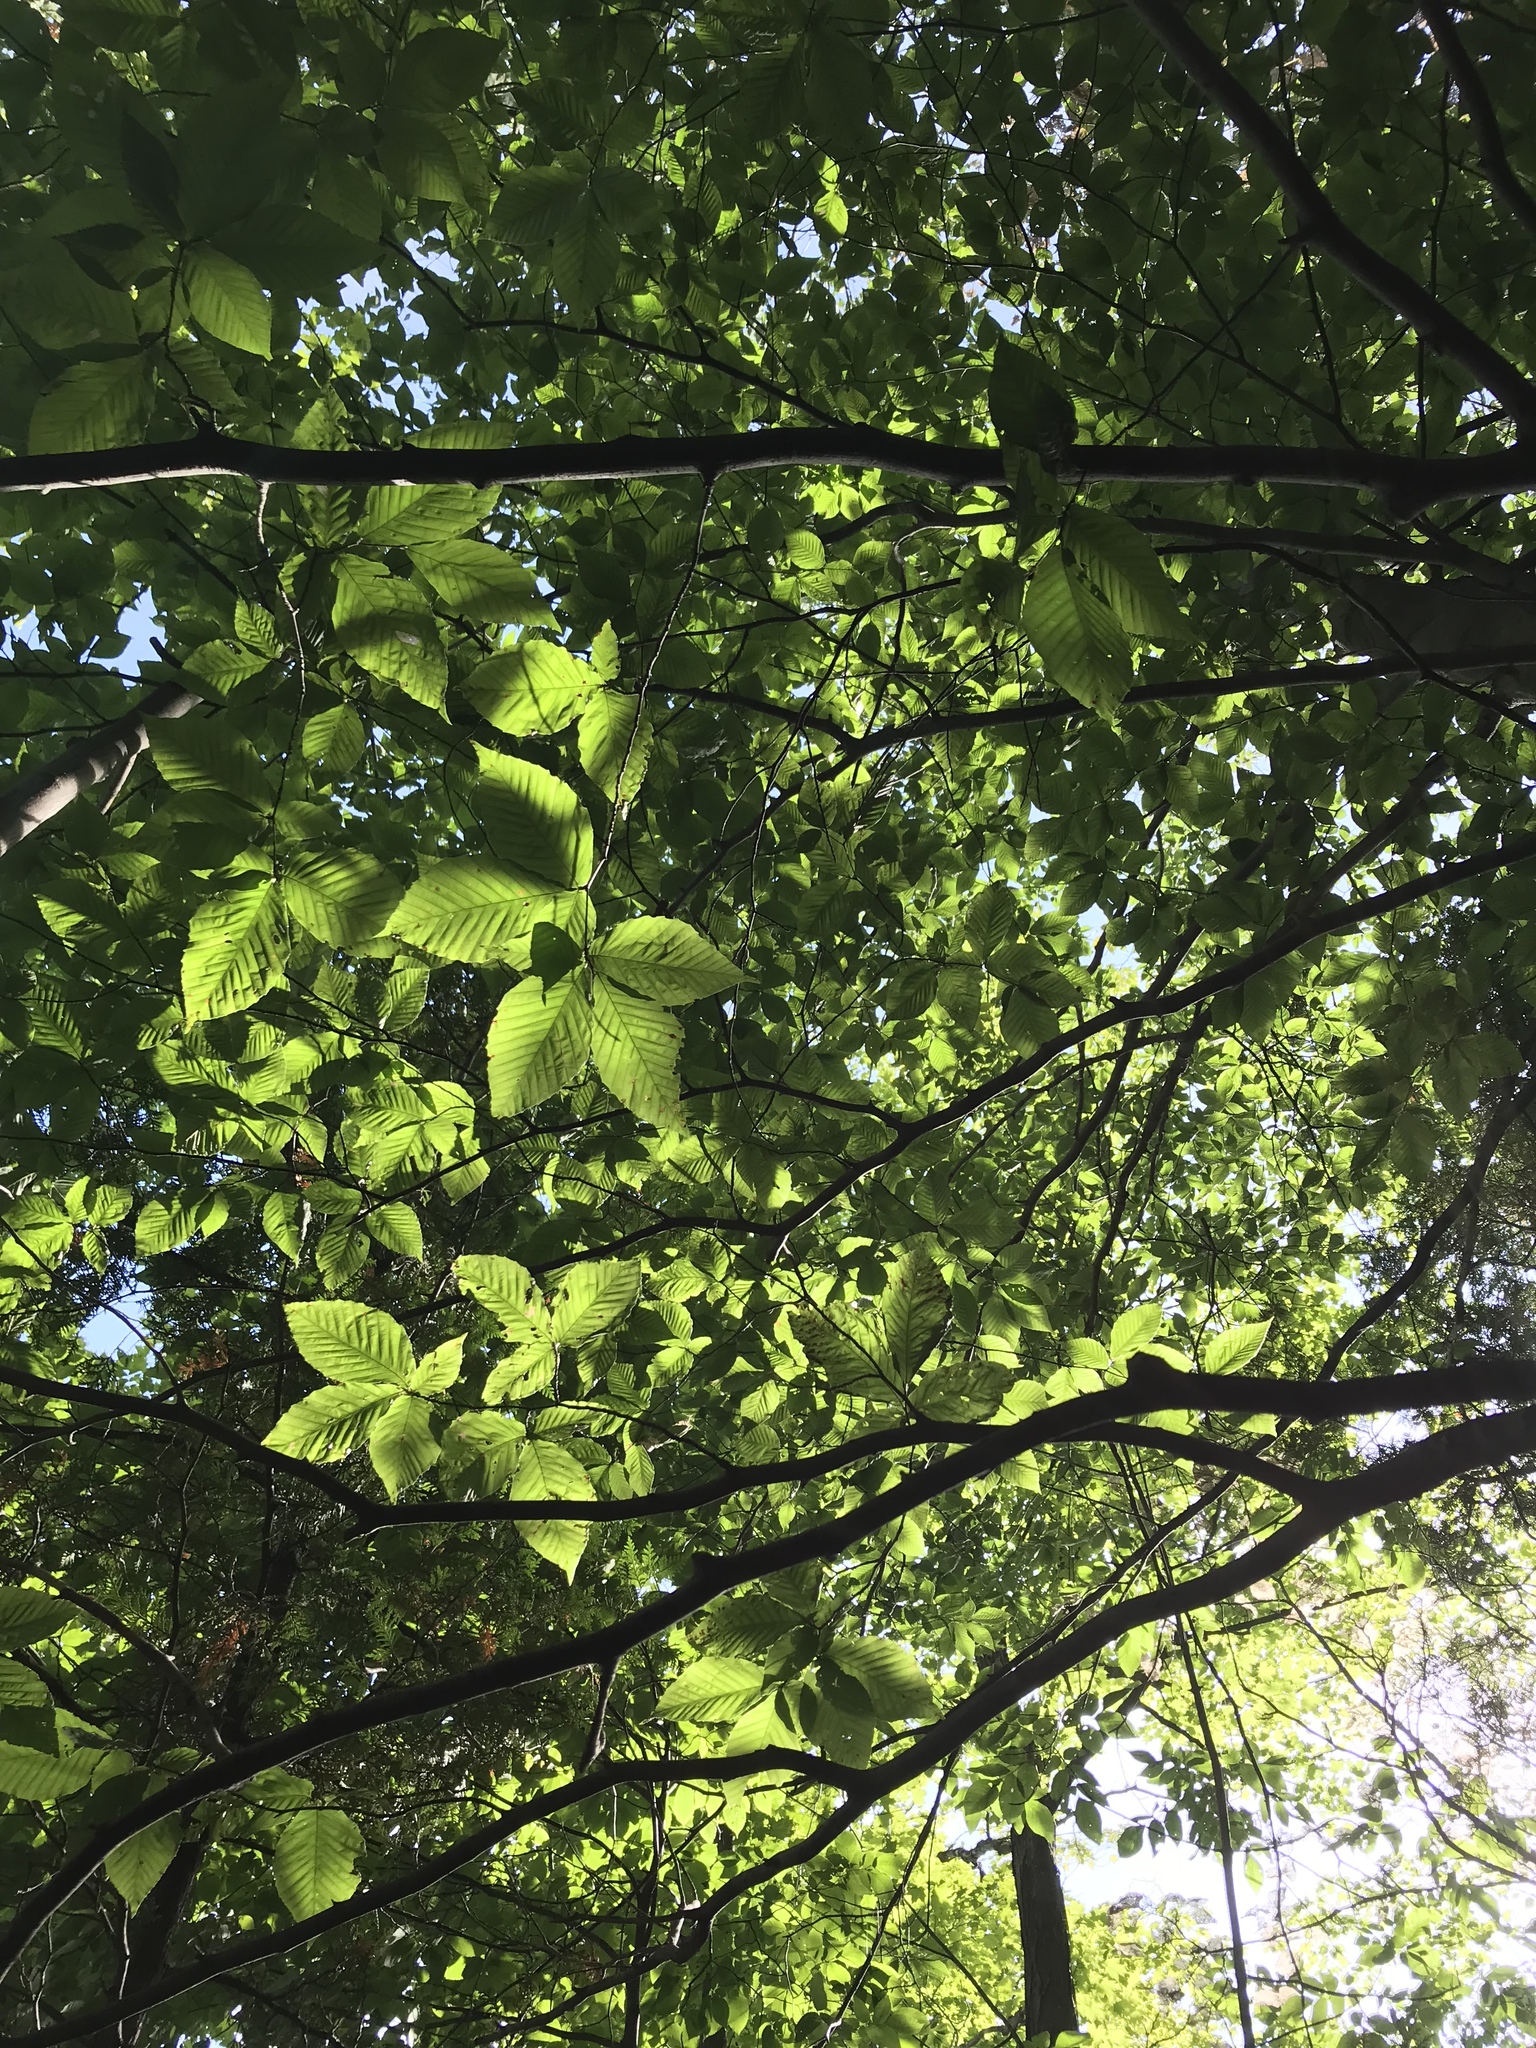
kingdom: Plantae
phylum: Tracheophyta
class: Magnoliopsida
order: Fagales
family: Fagaceae
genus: Fagus
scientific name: Fagus grandifolia
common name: American beech
